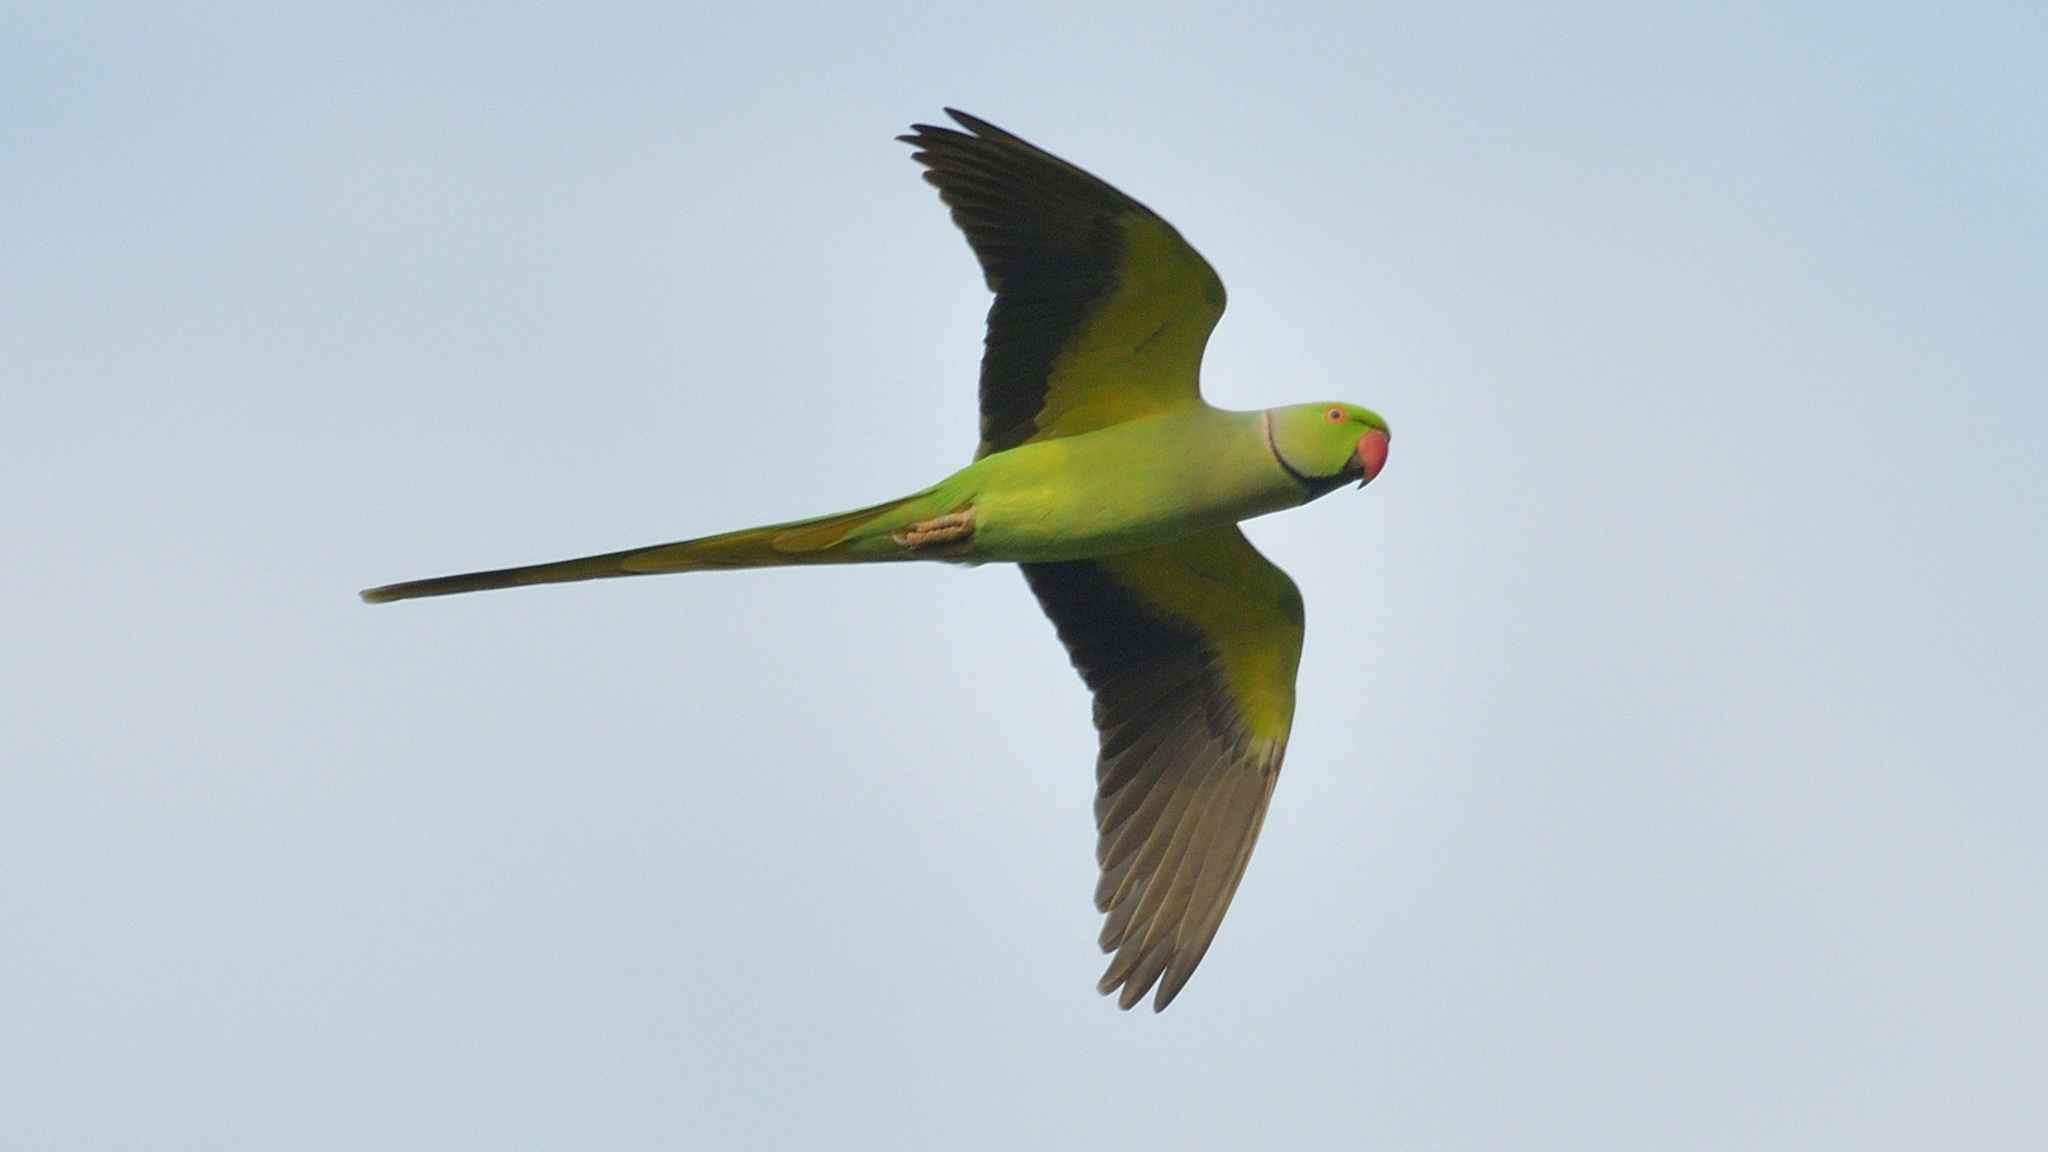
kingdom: Animalia
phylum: Chordata
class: Aves
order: Psittaciformes
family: Psittacidae
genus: Psittacula
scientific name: Psittacula krameri
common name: Rose-ringed parakeet
